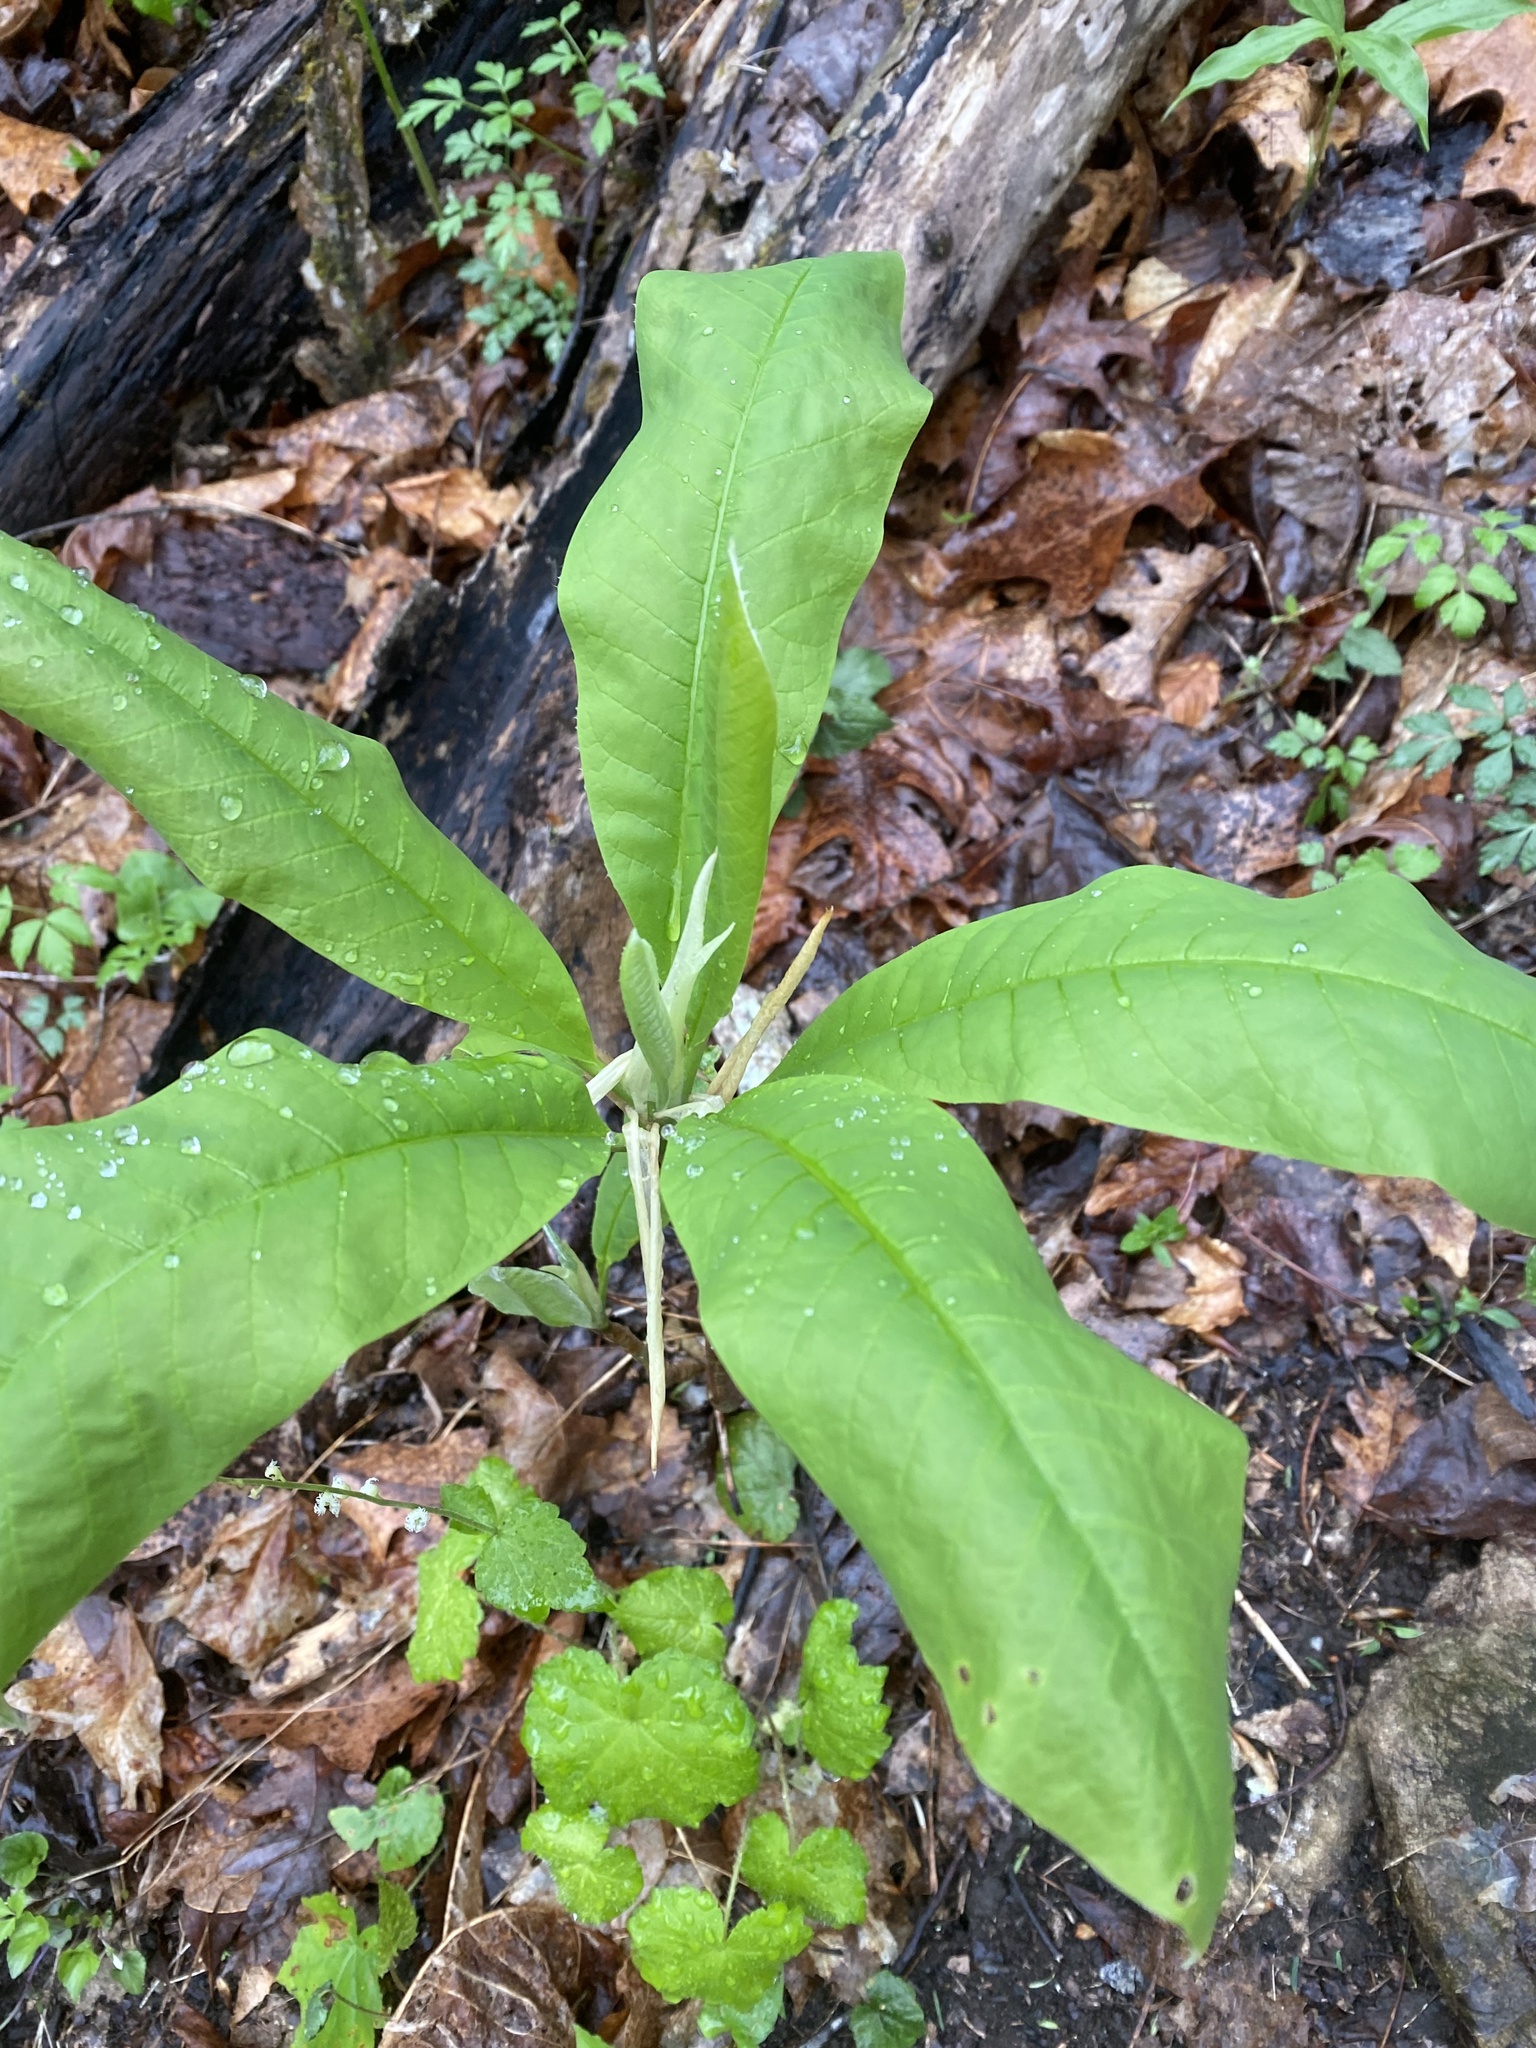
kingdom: Plantae
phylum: Tracheophyta
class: Magnoliopsida
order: Magnoliales
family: Magnoliaceae
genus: Magnolia
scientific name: Magnolia tripetala
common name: Umbrella magnolia
